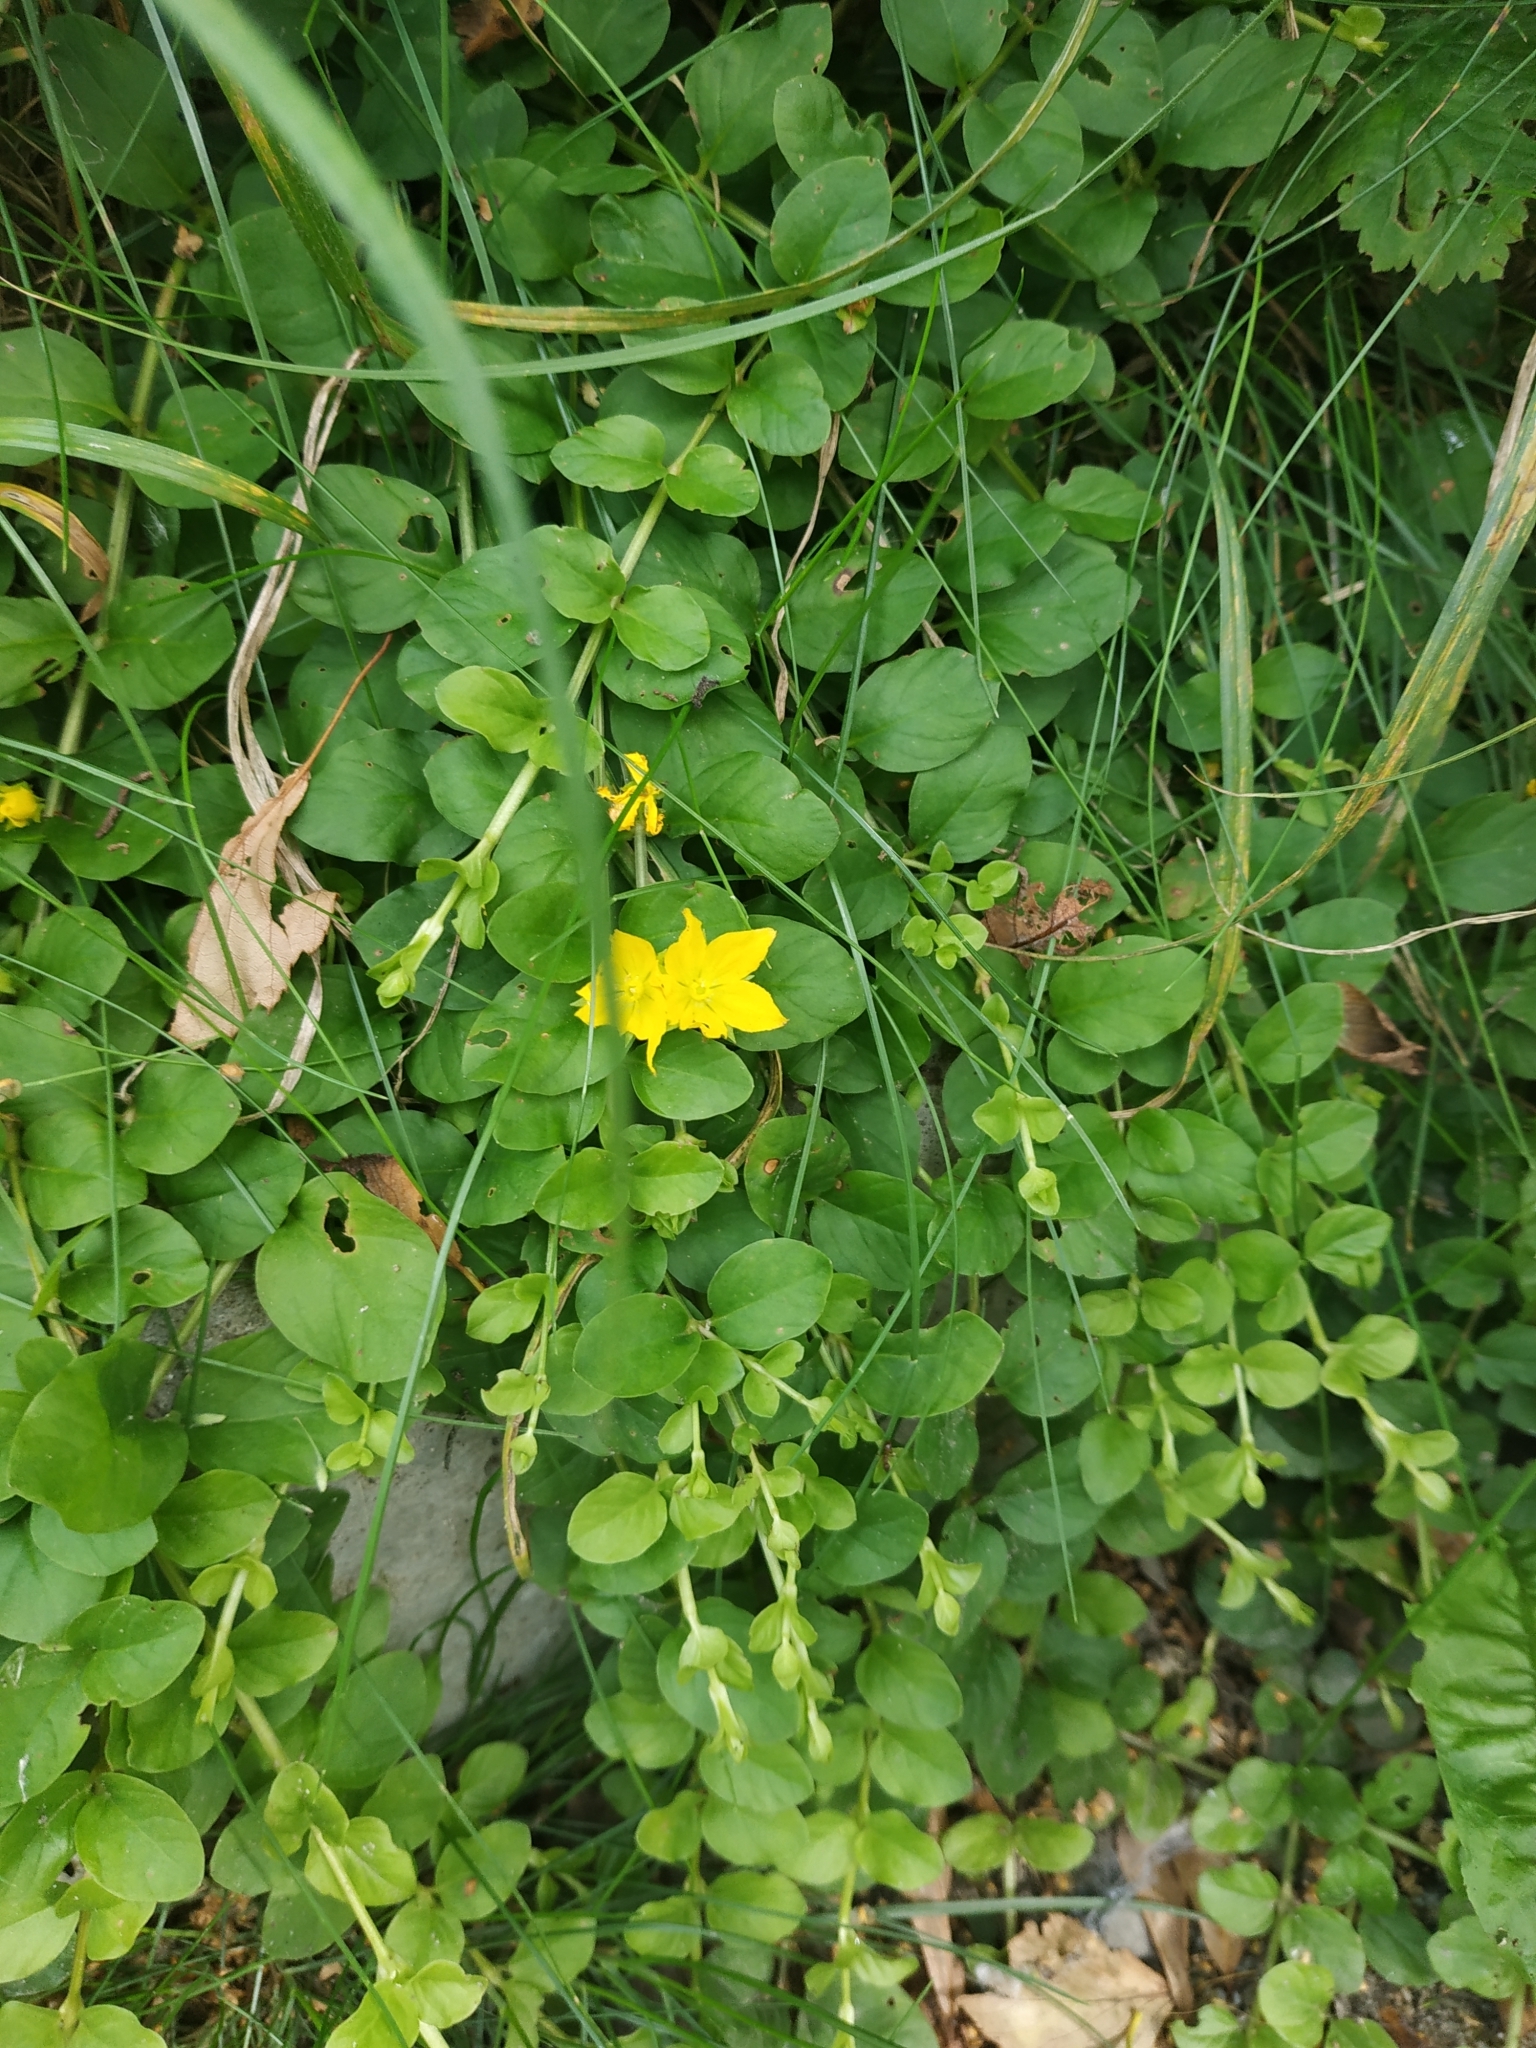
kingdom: Plantae
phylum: Tracheophyta
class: Magnoliopsida
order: Ericales
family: Primulaceae
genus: Lysimachia
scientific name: Lysimachia nummularia
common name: Moneywort
